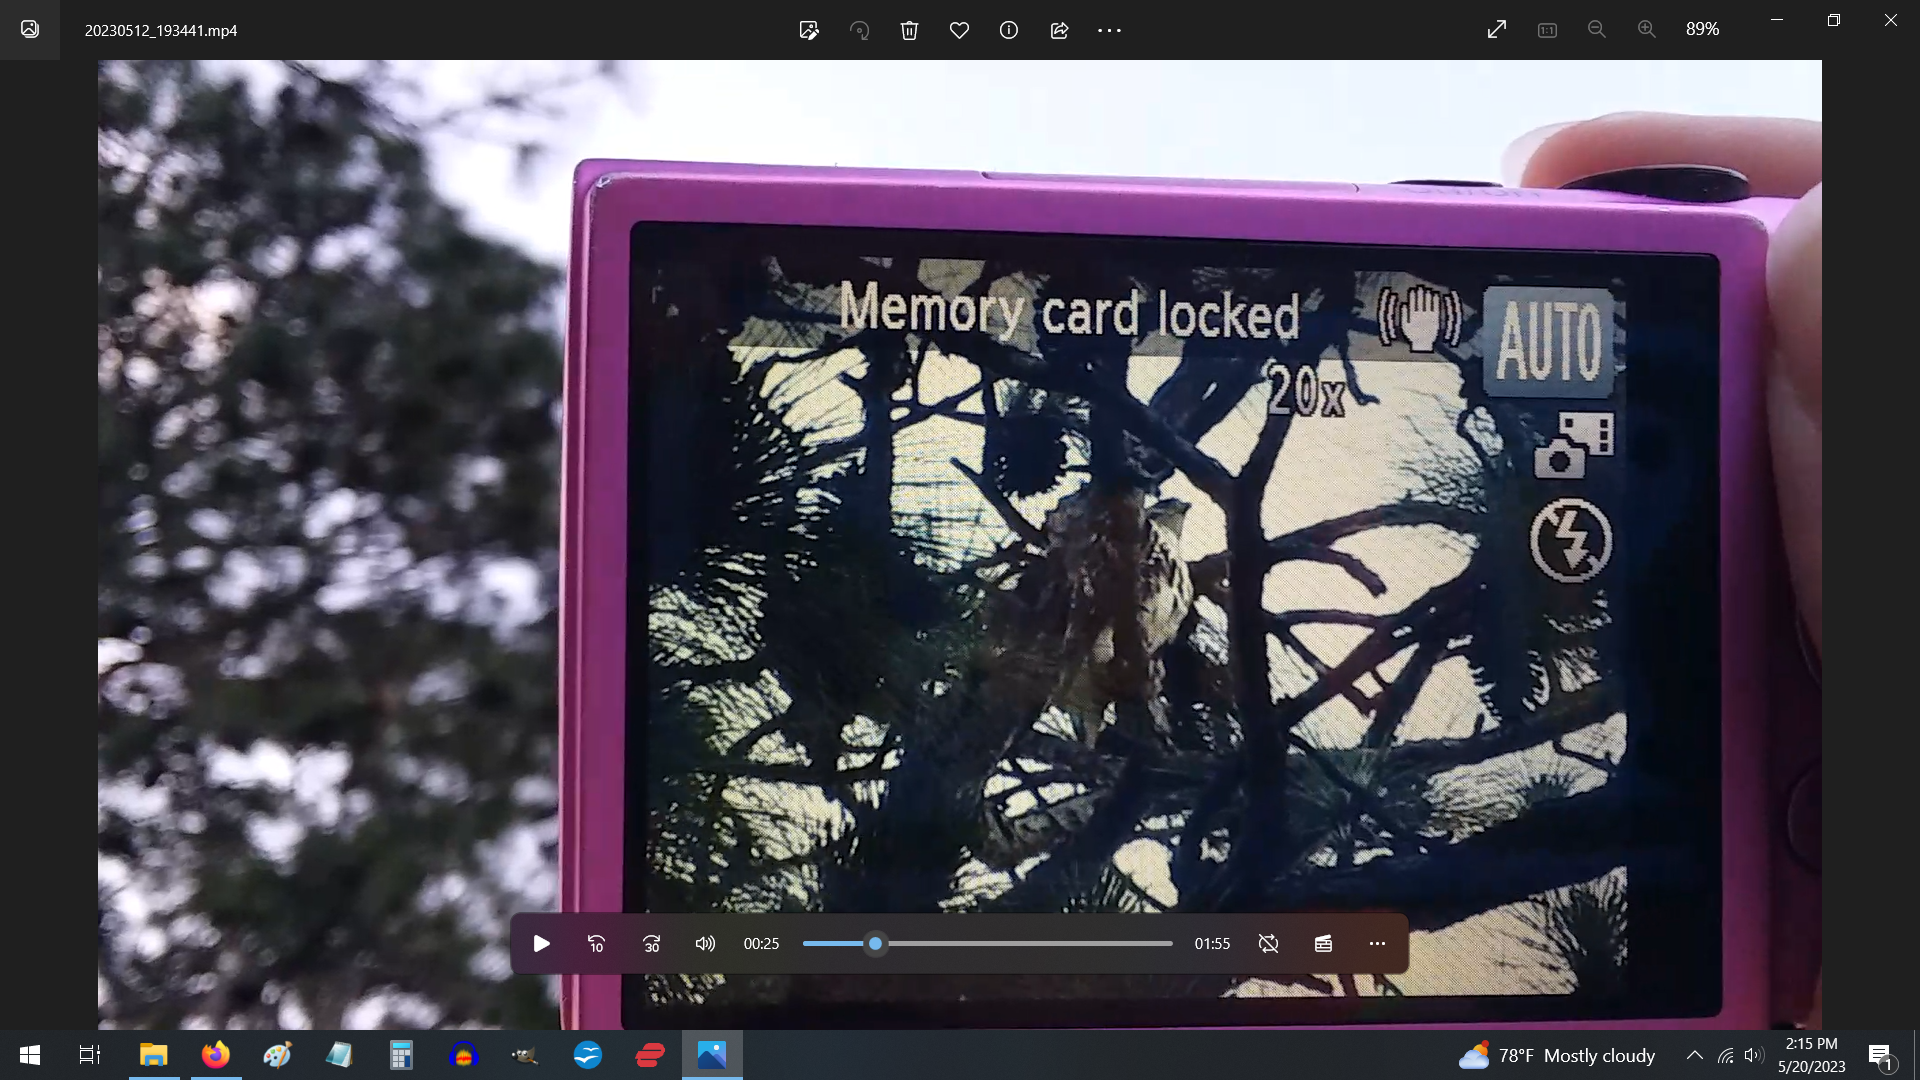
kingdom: Animalia
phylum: Chordata
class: Aves
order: Accipitriformes
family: Accipitridae
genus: Buteo
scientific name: Buteo jamaicensis
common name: Red-tailed hawk
